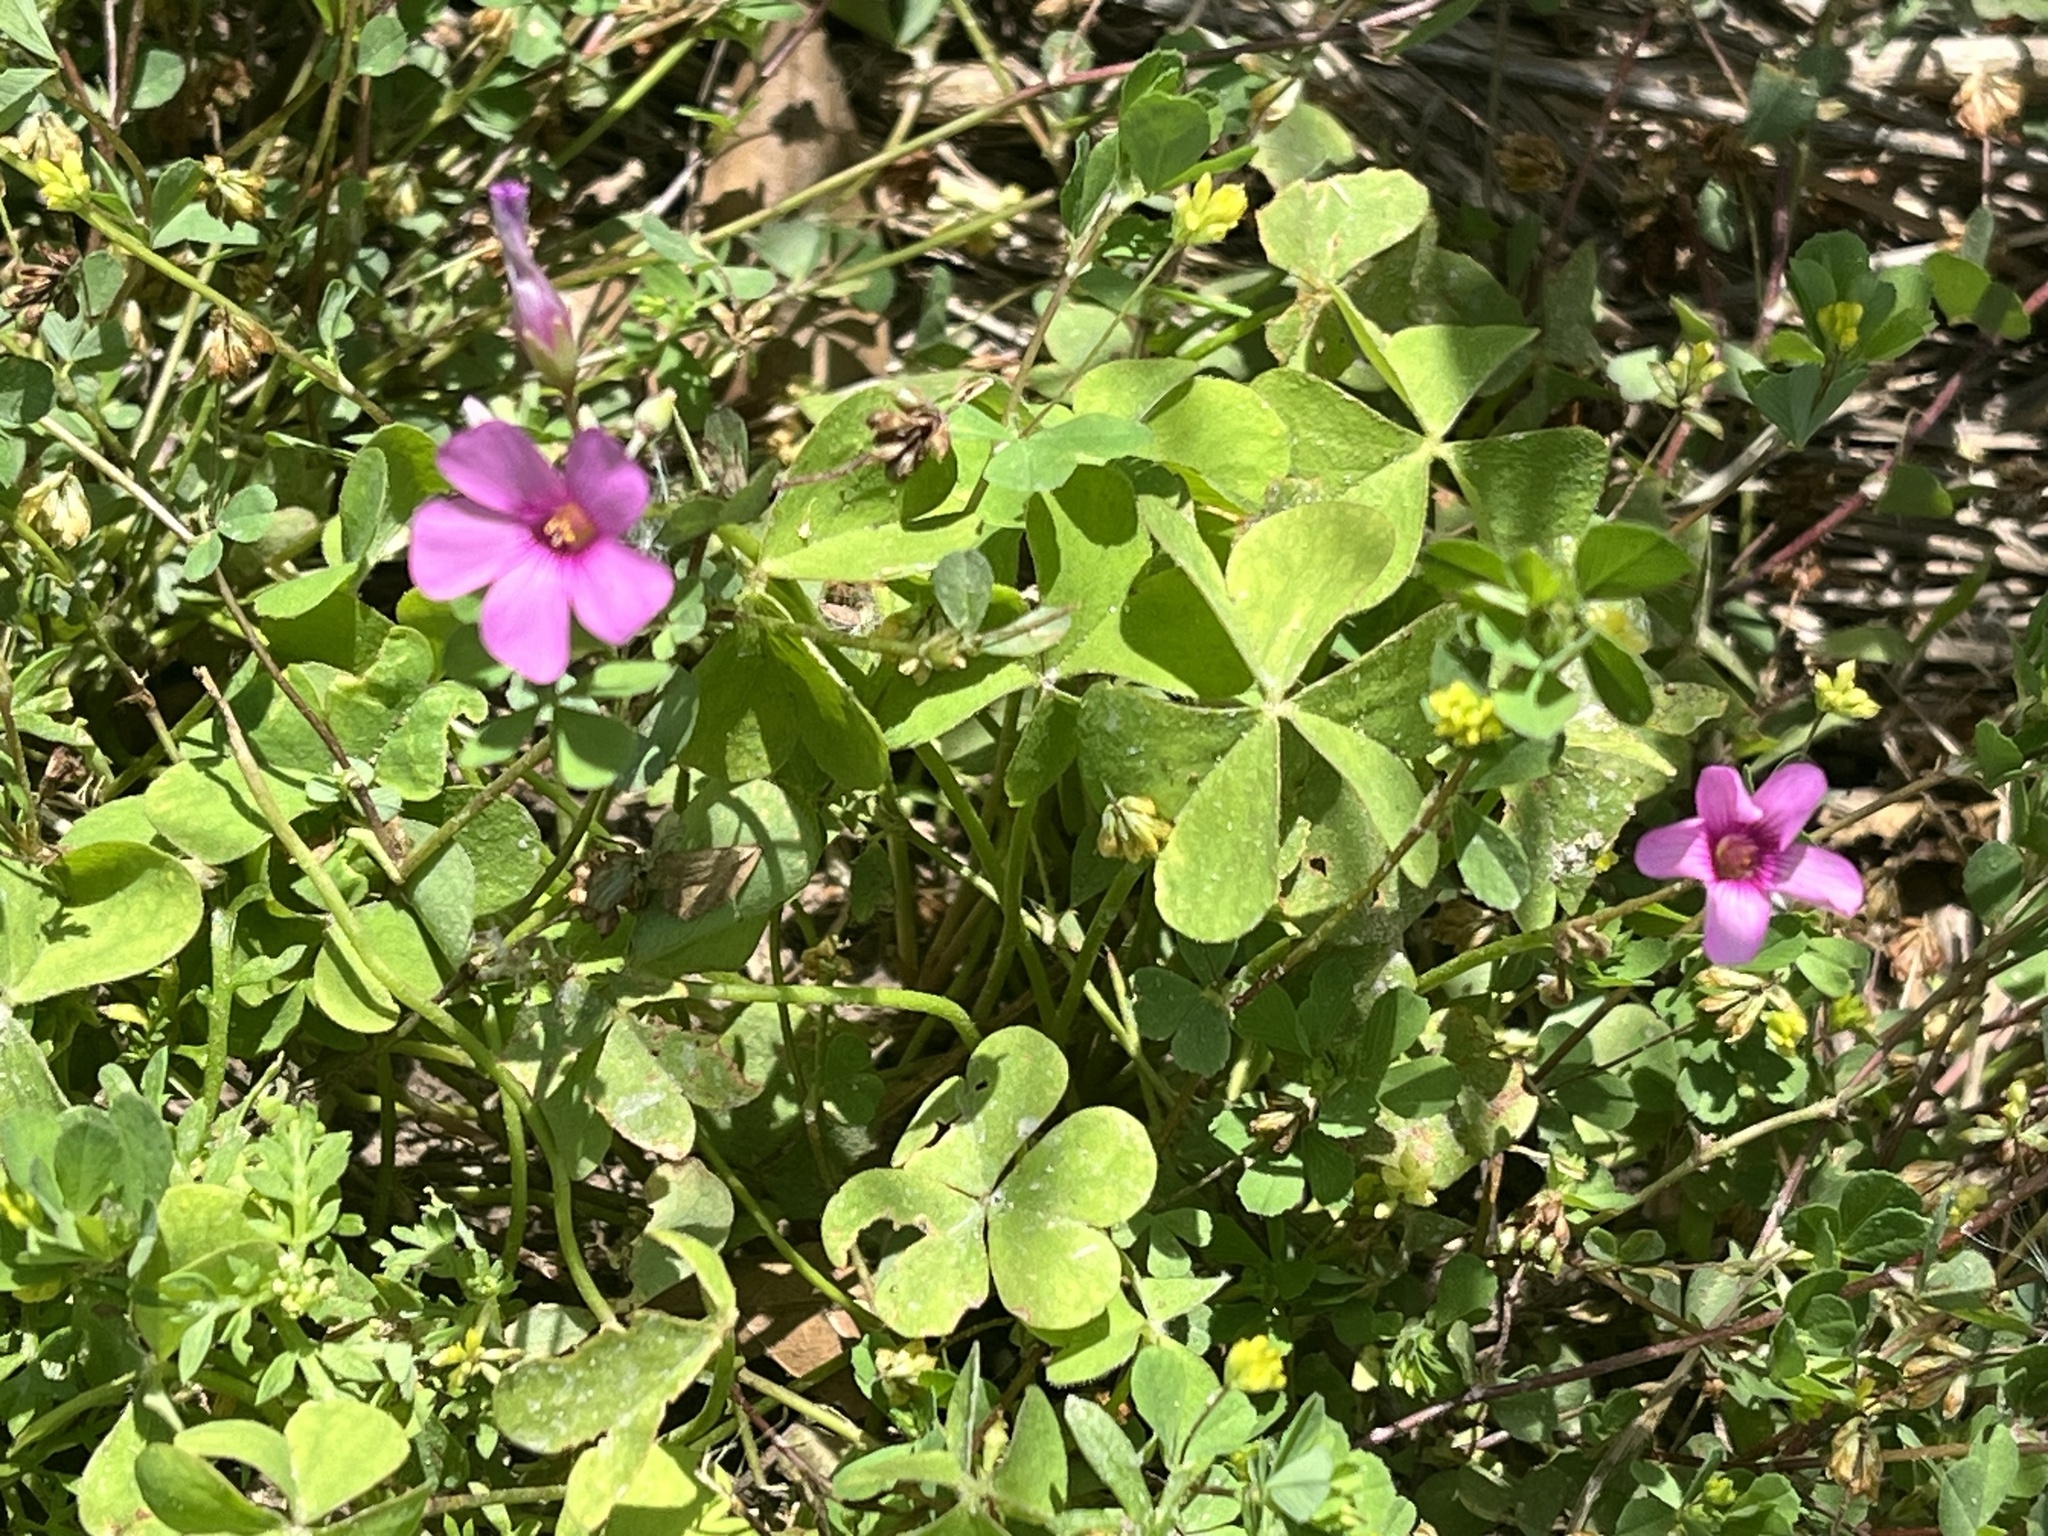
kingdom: Plantae
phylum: Tracheophyta
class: Magnoliopsida
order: Oxalidales
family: Oxalidaceae
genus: Oxalis
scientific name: Oxalis articulata
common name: Pink-sorrel
